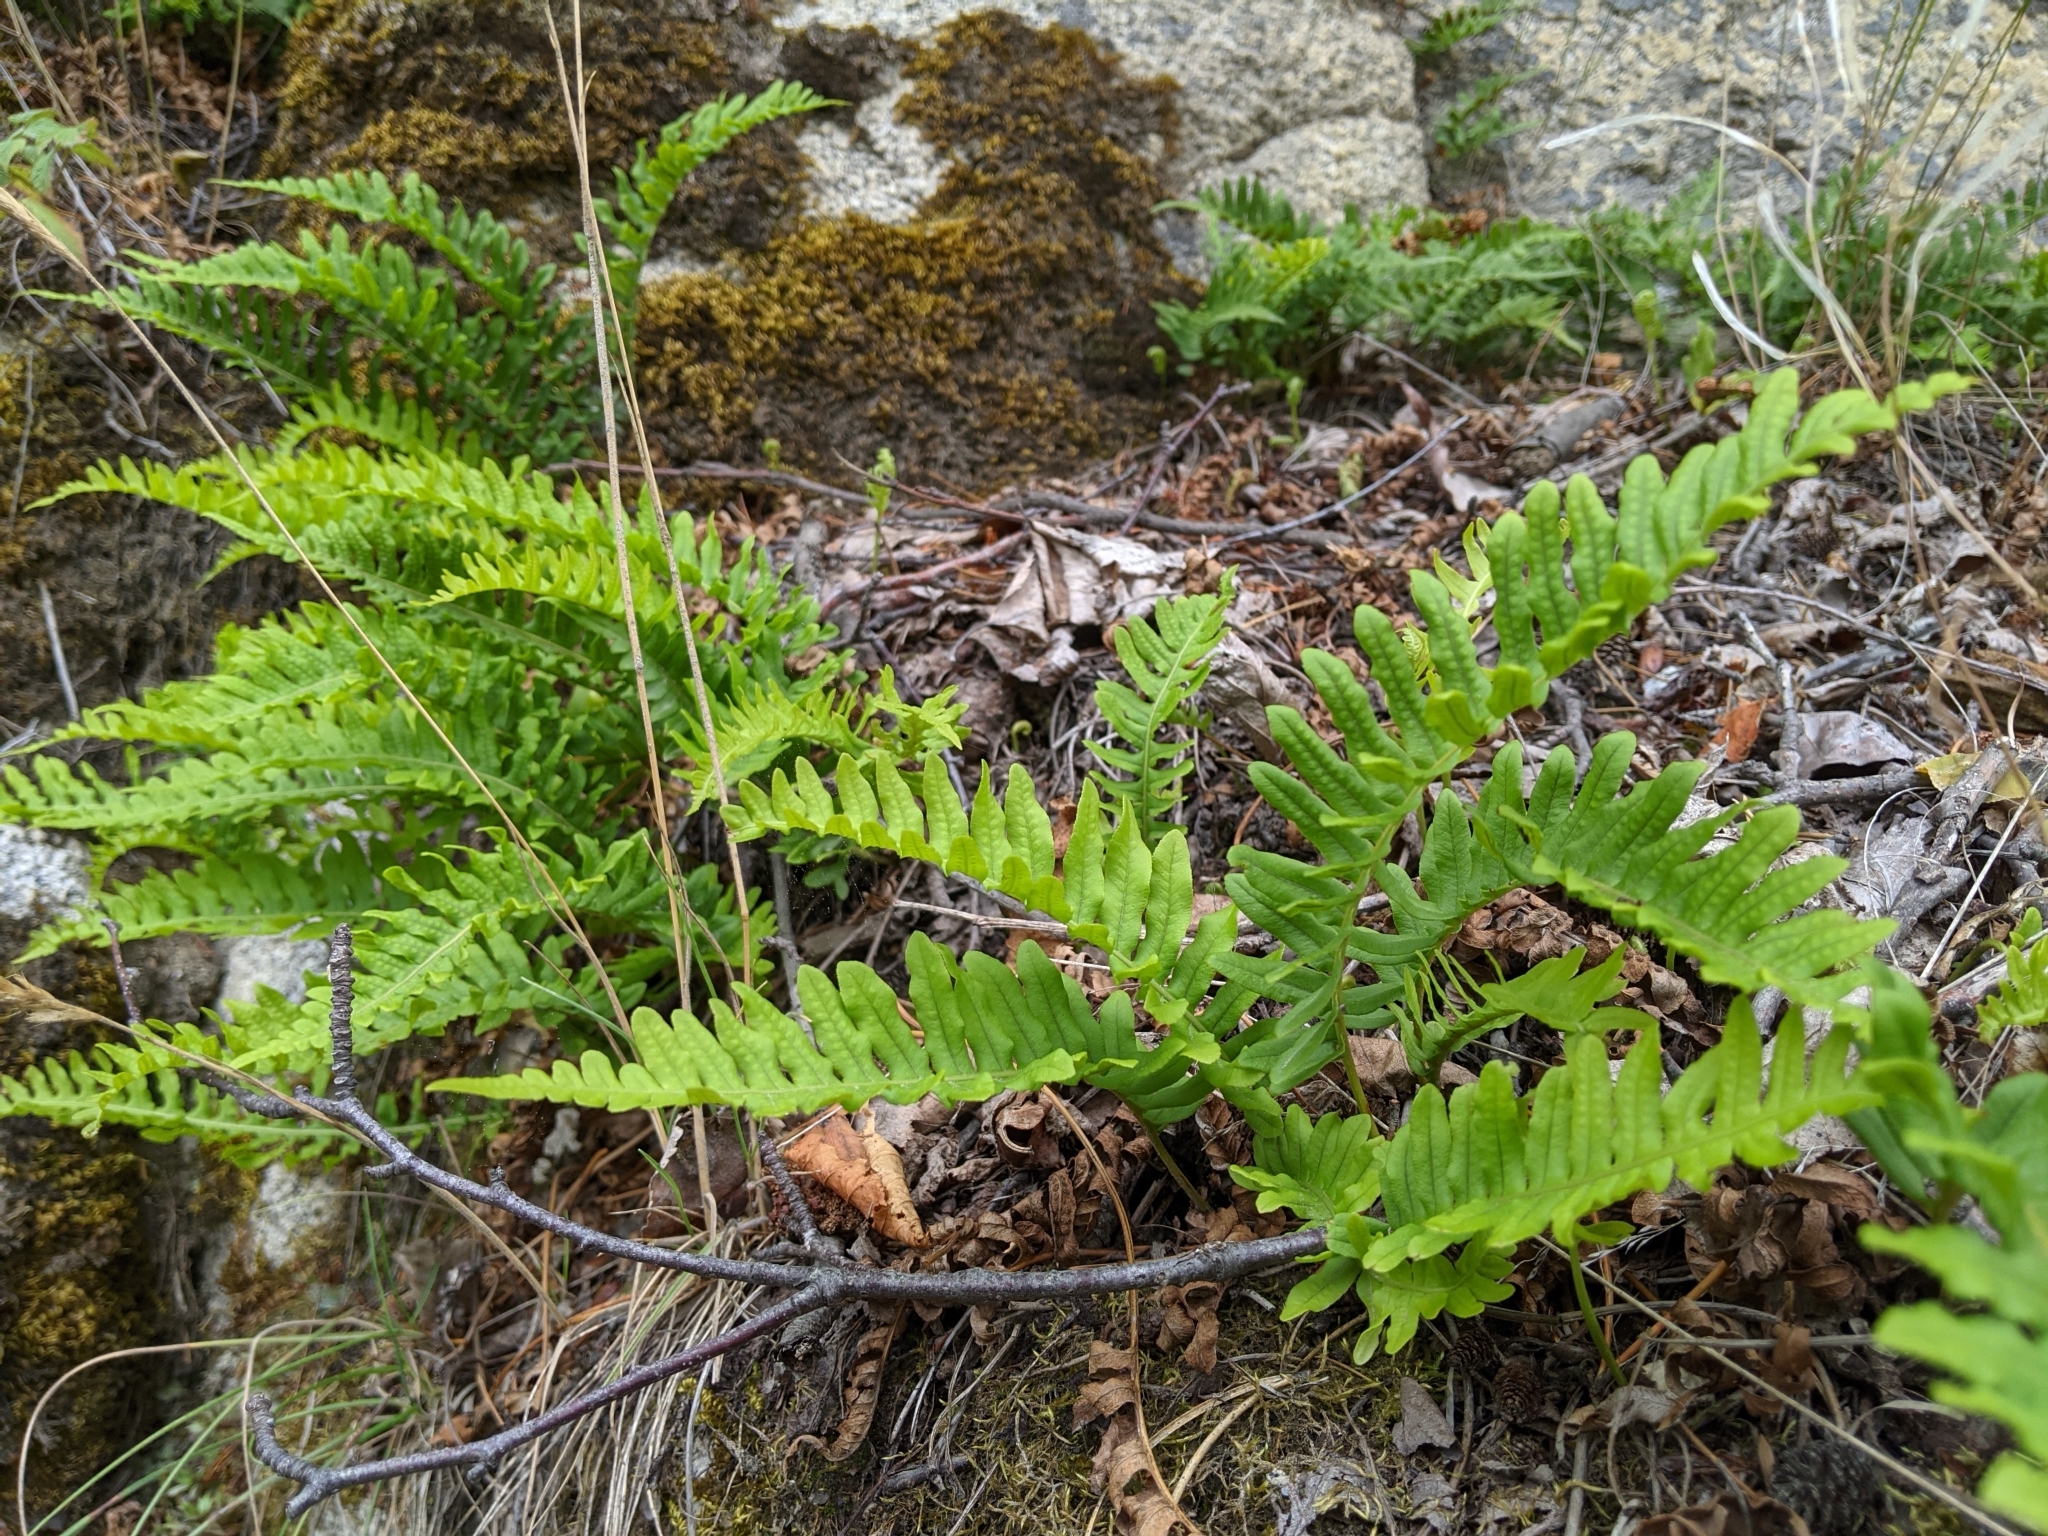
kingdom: Plantae
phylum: Tracheophyta
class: Polypodiopsida
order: Polypodiales
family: Polypodiaceae
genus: Polypodium
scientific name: Polypodium glycyrrhiza
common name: Licorice fern
